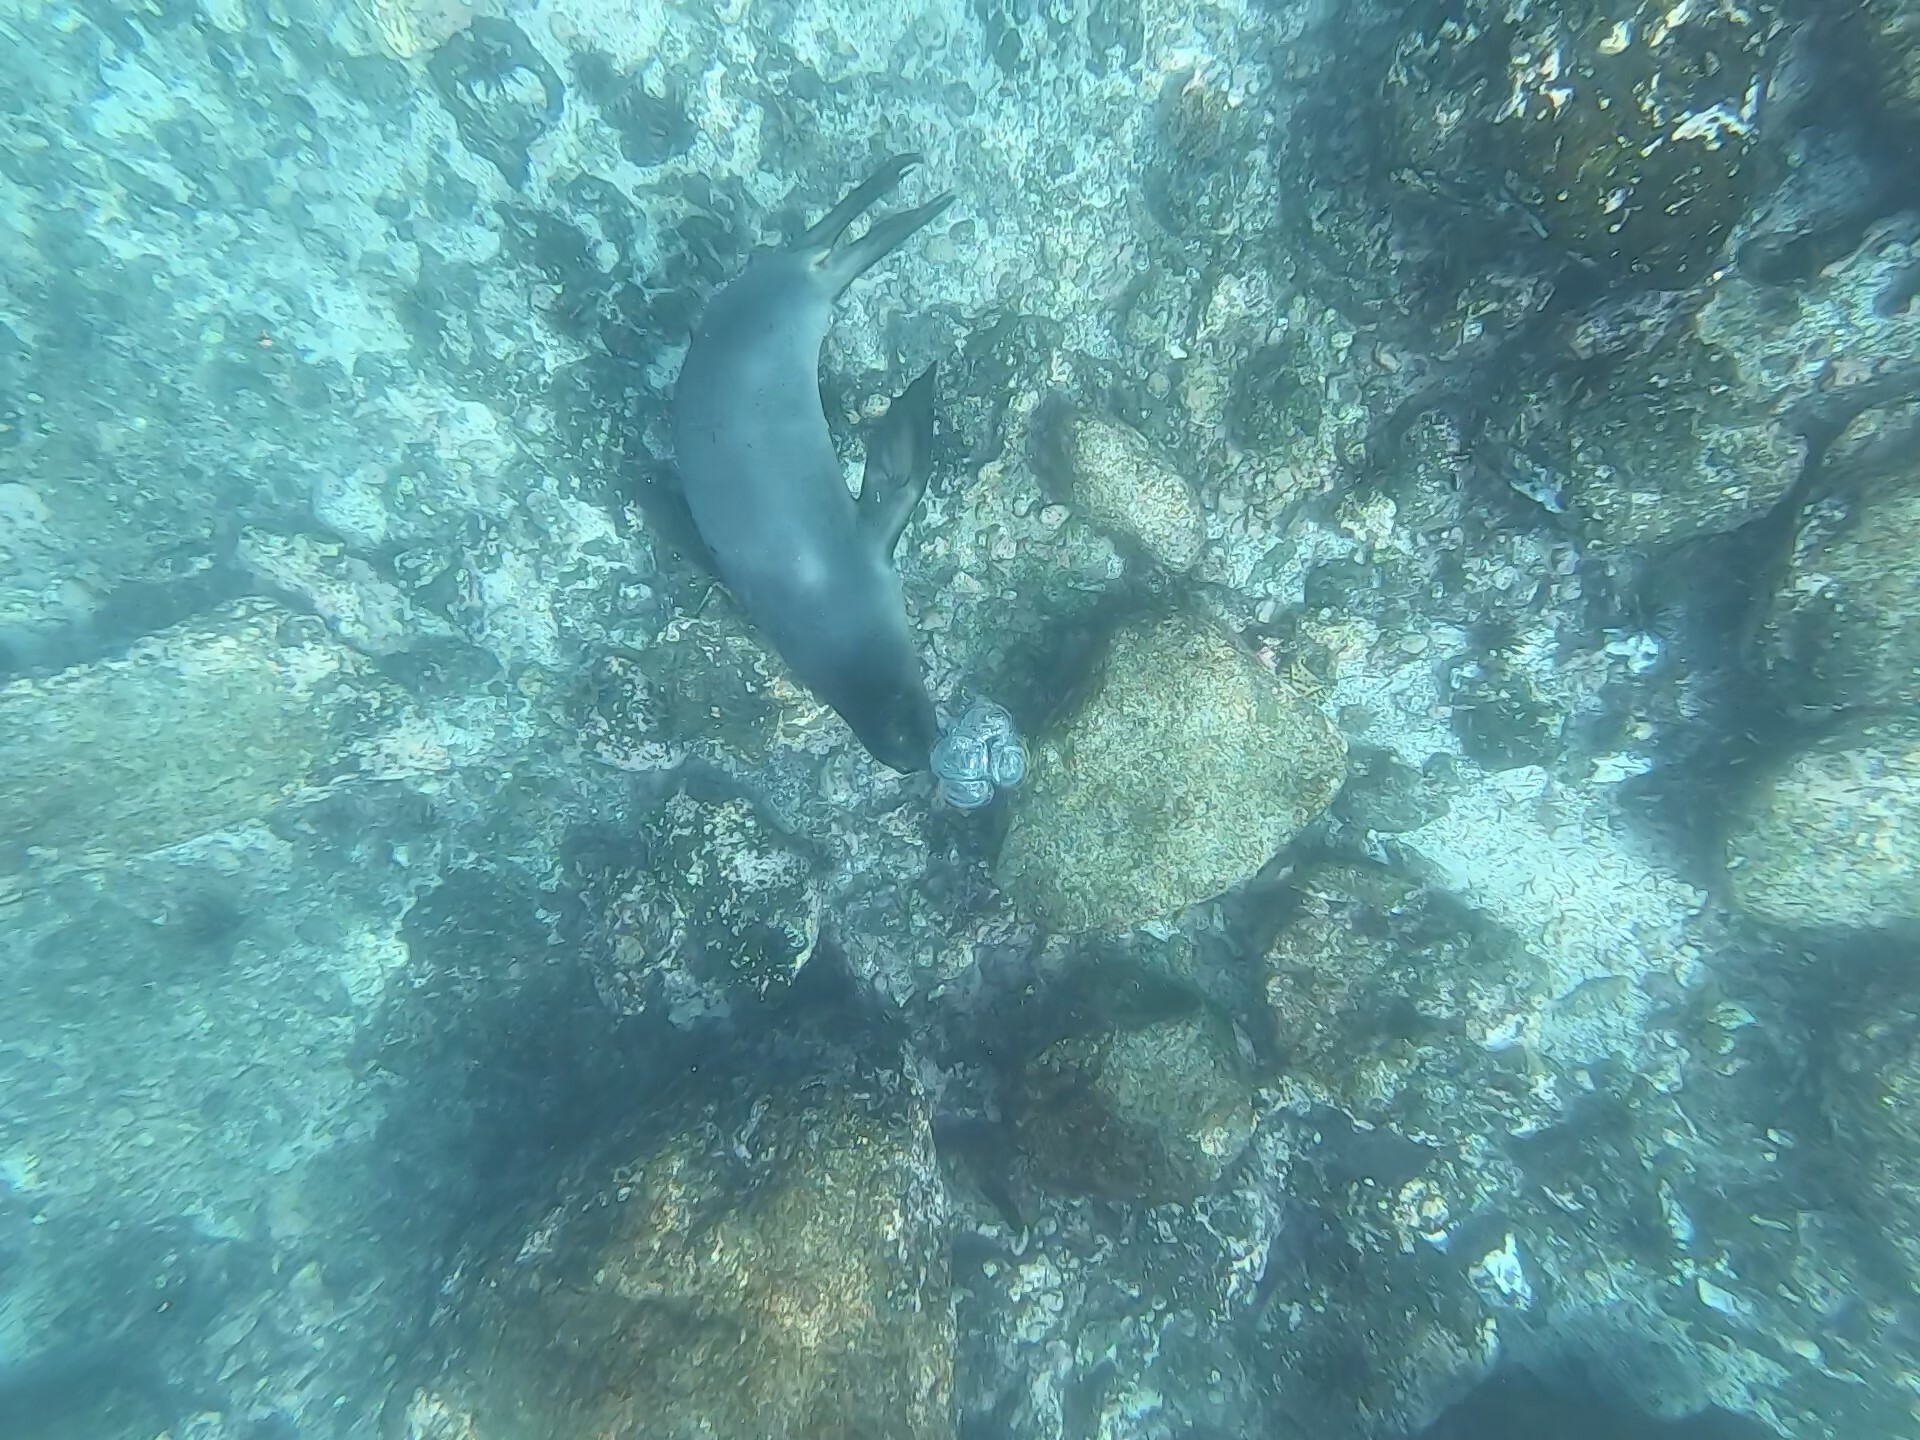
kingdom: Animalia
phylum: Chordata
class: Mammalia
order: Carnivora
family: Otariidae
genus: Zalophus
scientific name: Zalophus wollebaeki
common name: Galapagos sea lion
